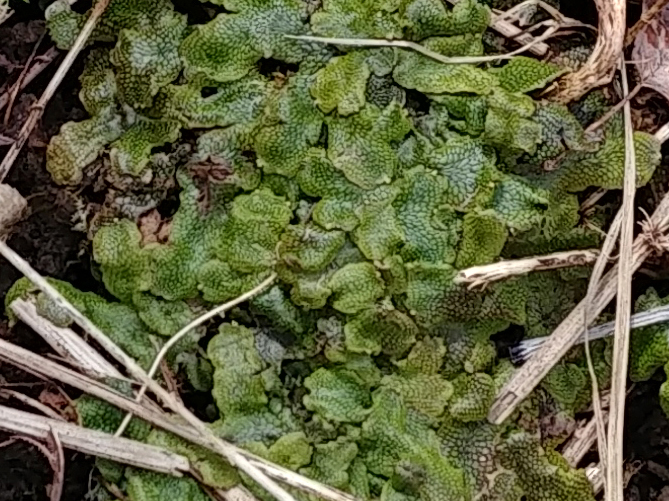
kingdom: Plantae
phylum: Marchantiophyta
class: Marchantiopsida
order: Marchantiales
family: Conocephalaceae
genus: Conocephalum
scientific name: Conocephalum salebrosum
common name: Cat-tongue liverwort
